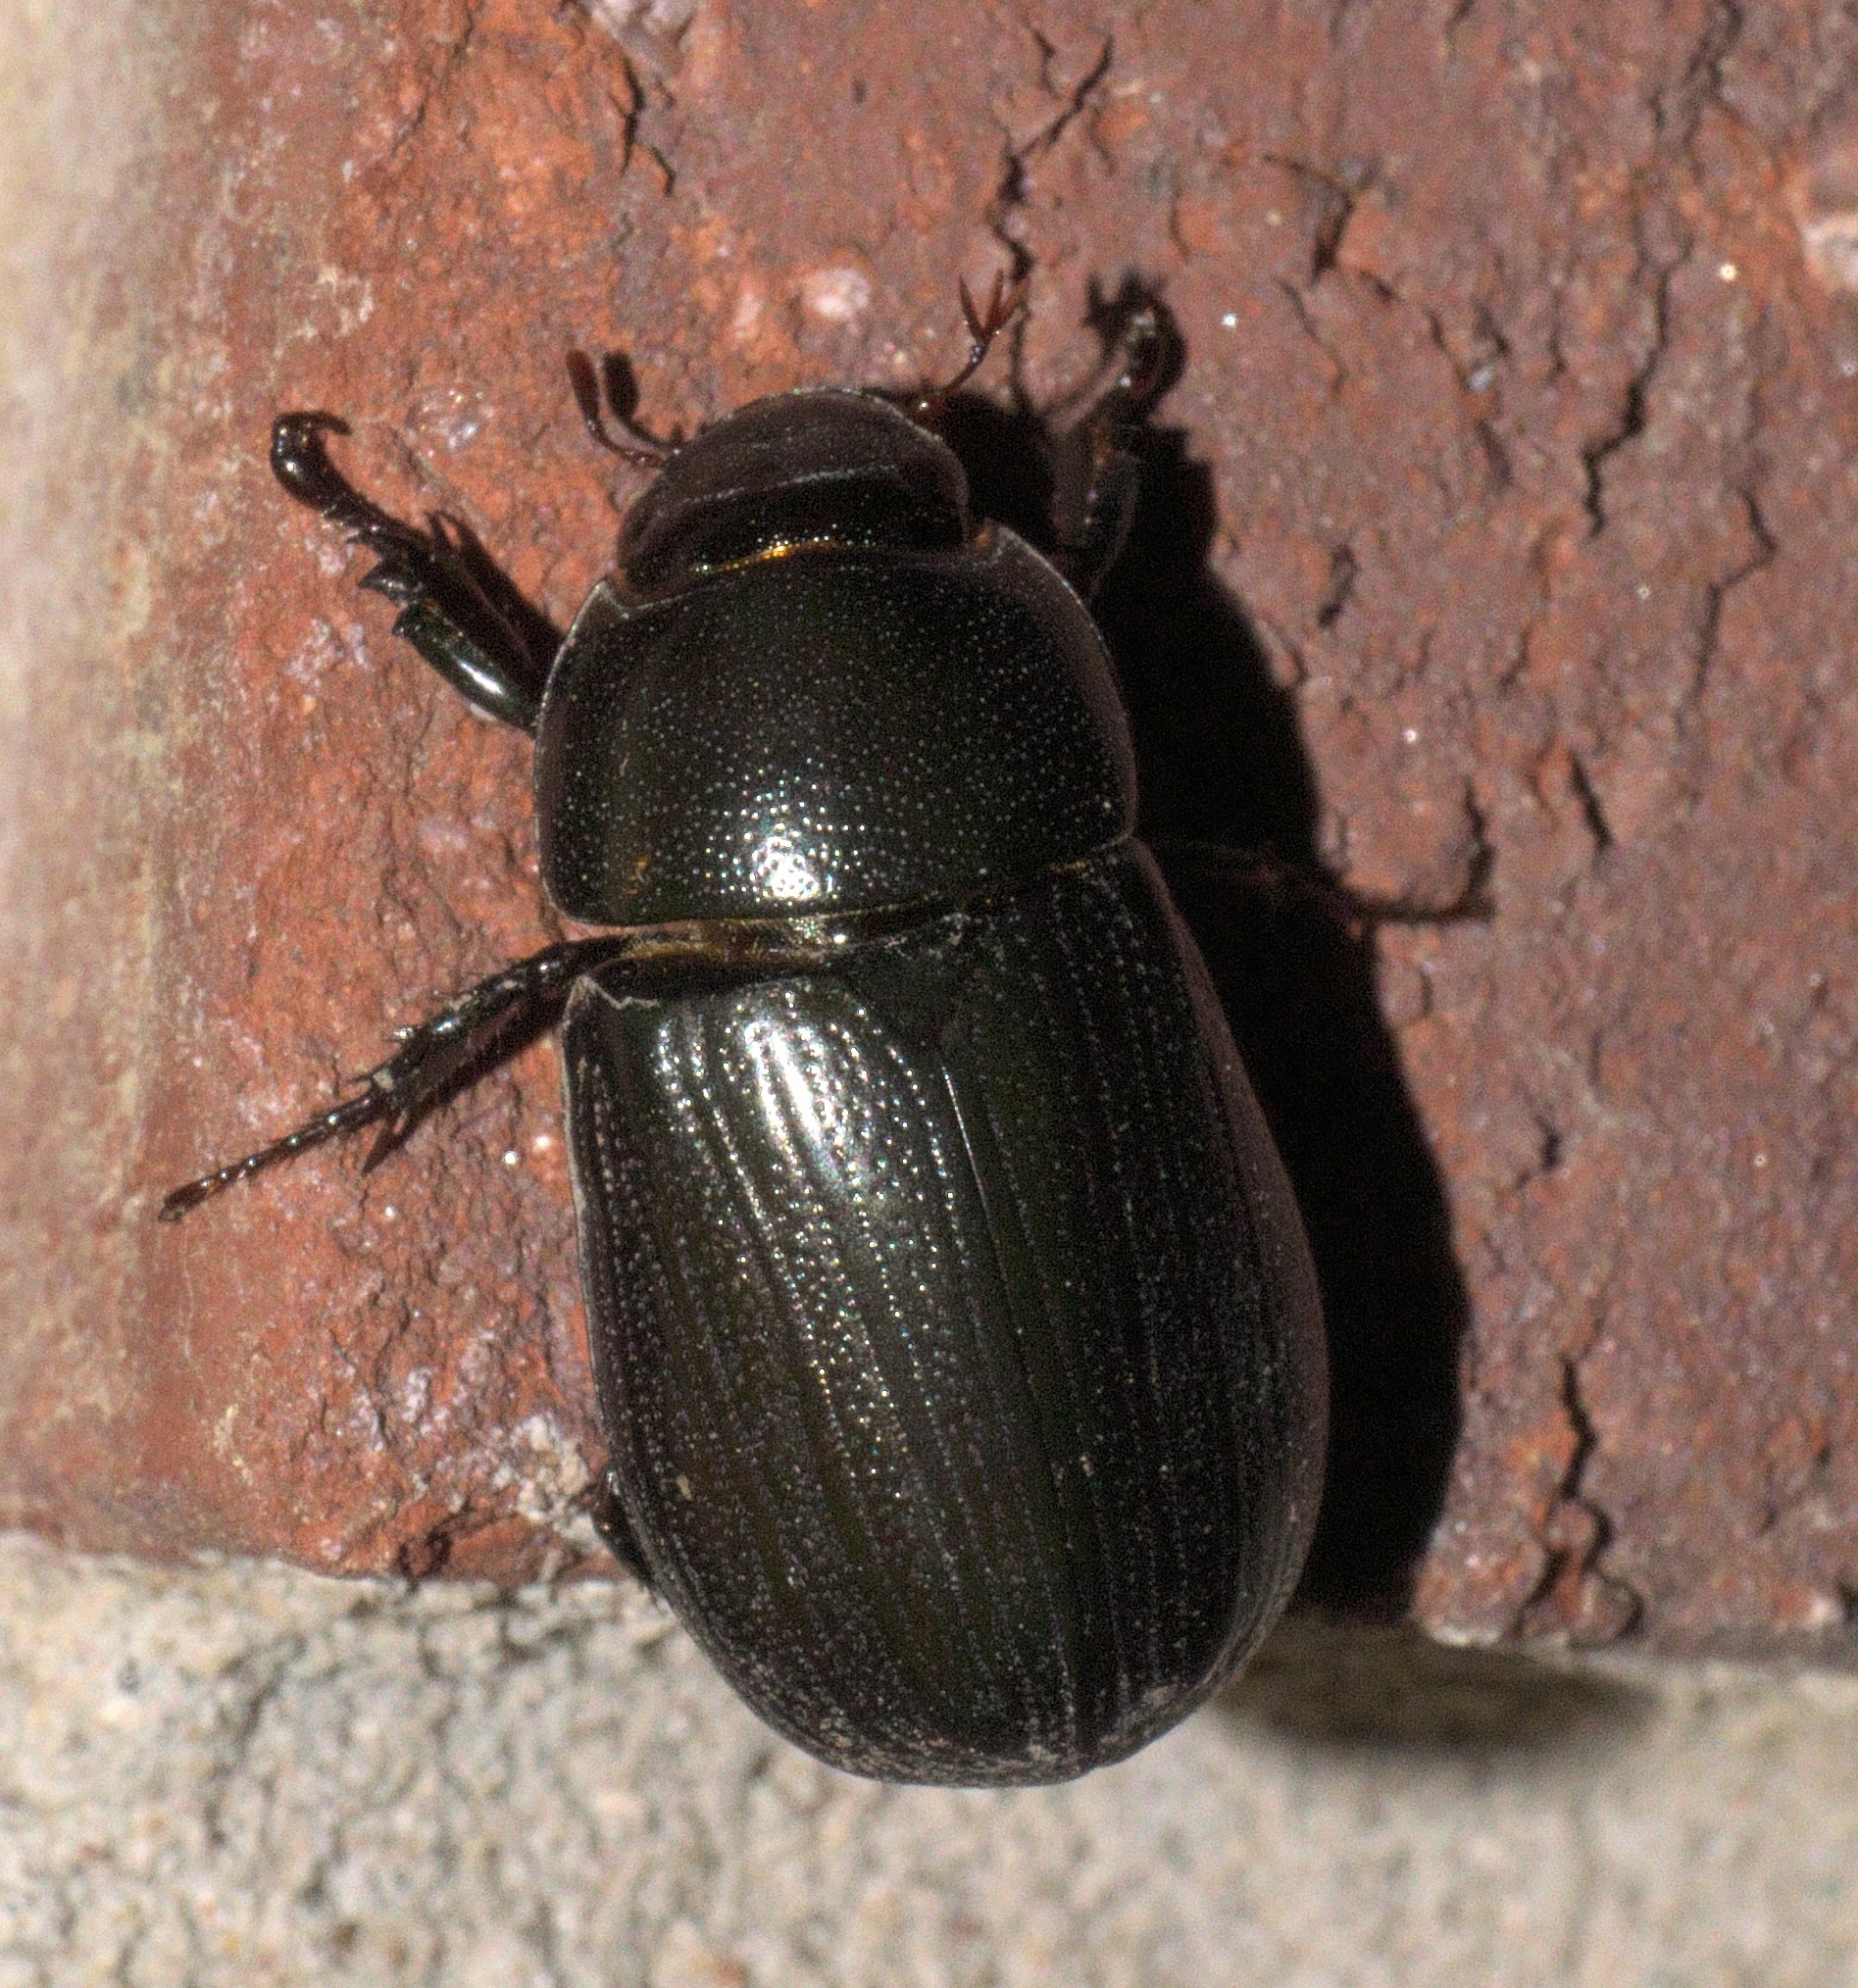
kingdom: Animalia
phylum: Arthropoda
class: Insecta
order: Coleoptera
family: Scarabaeidae
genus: Dyscinetus
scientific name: Dyscinetus morator
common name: Rice beetle
